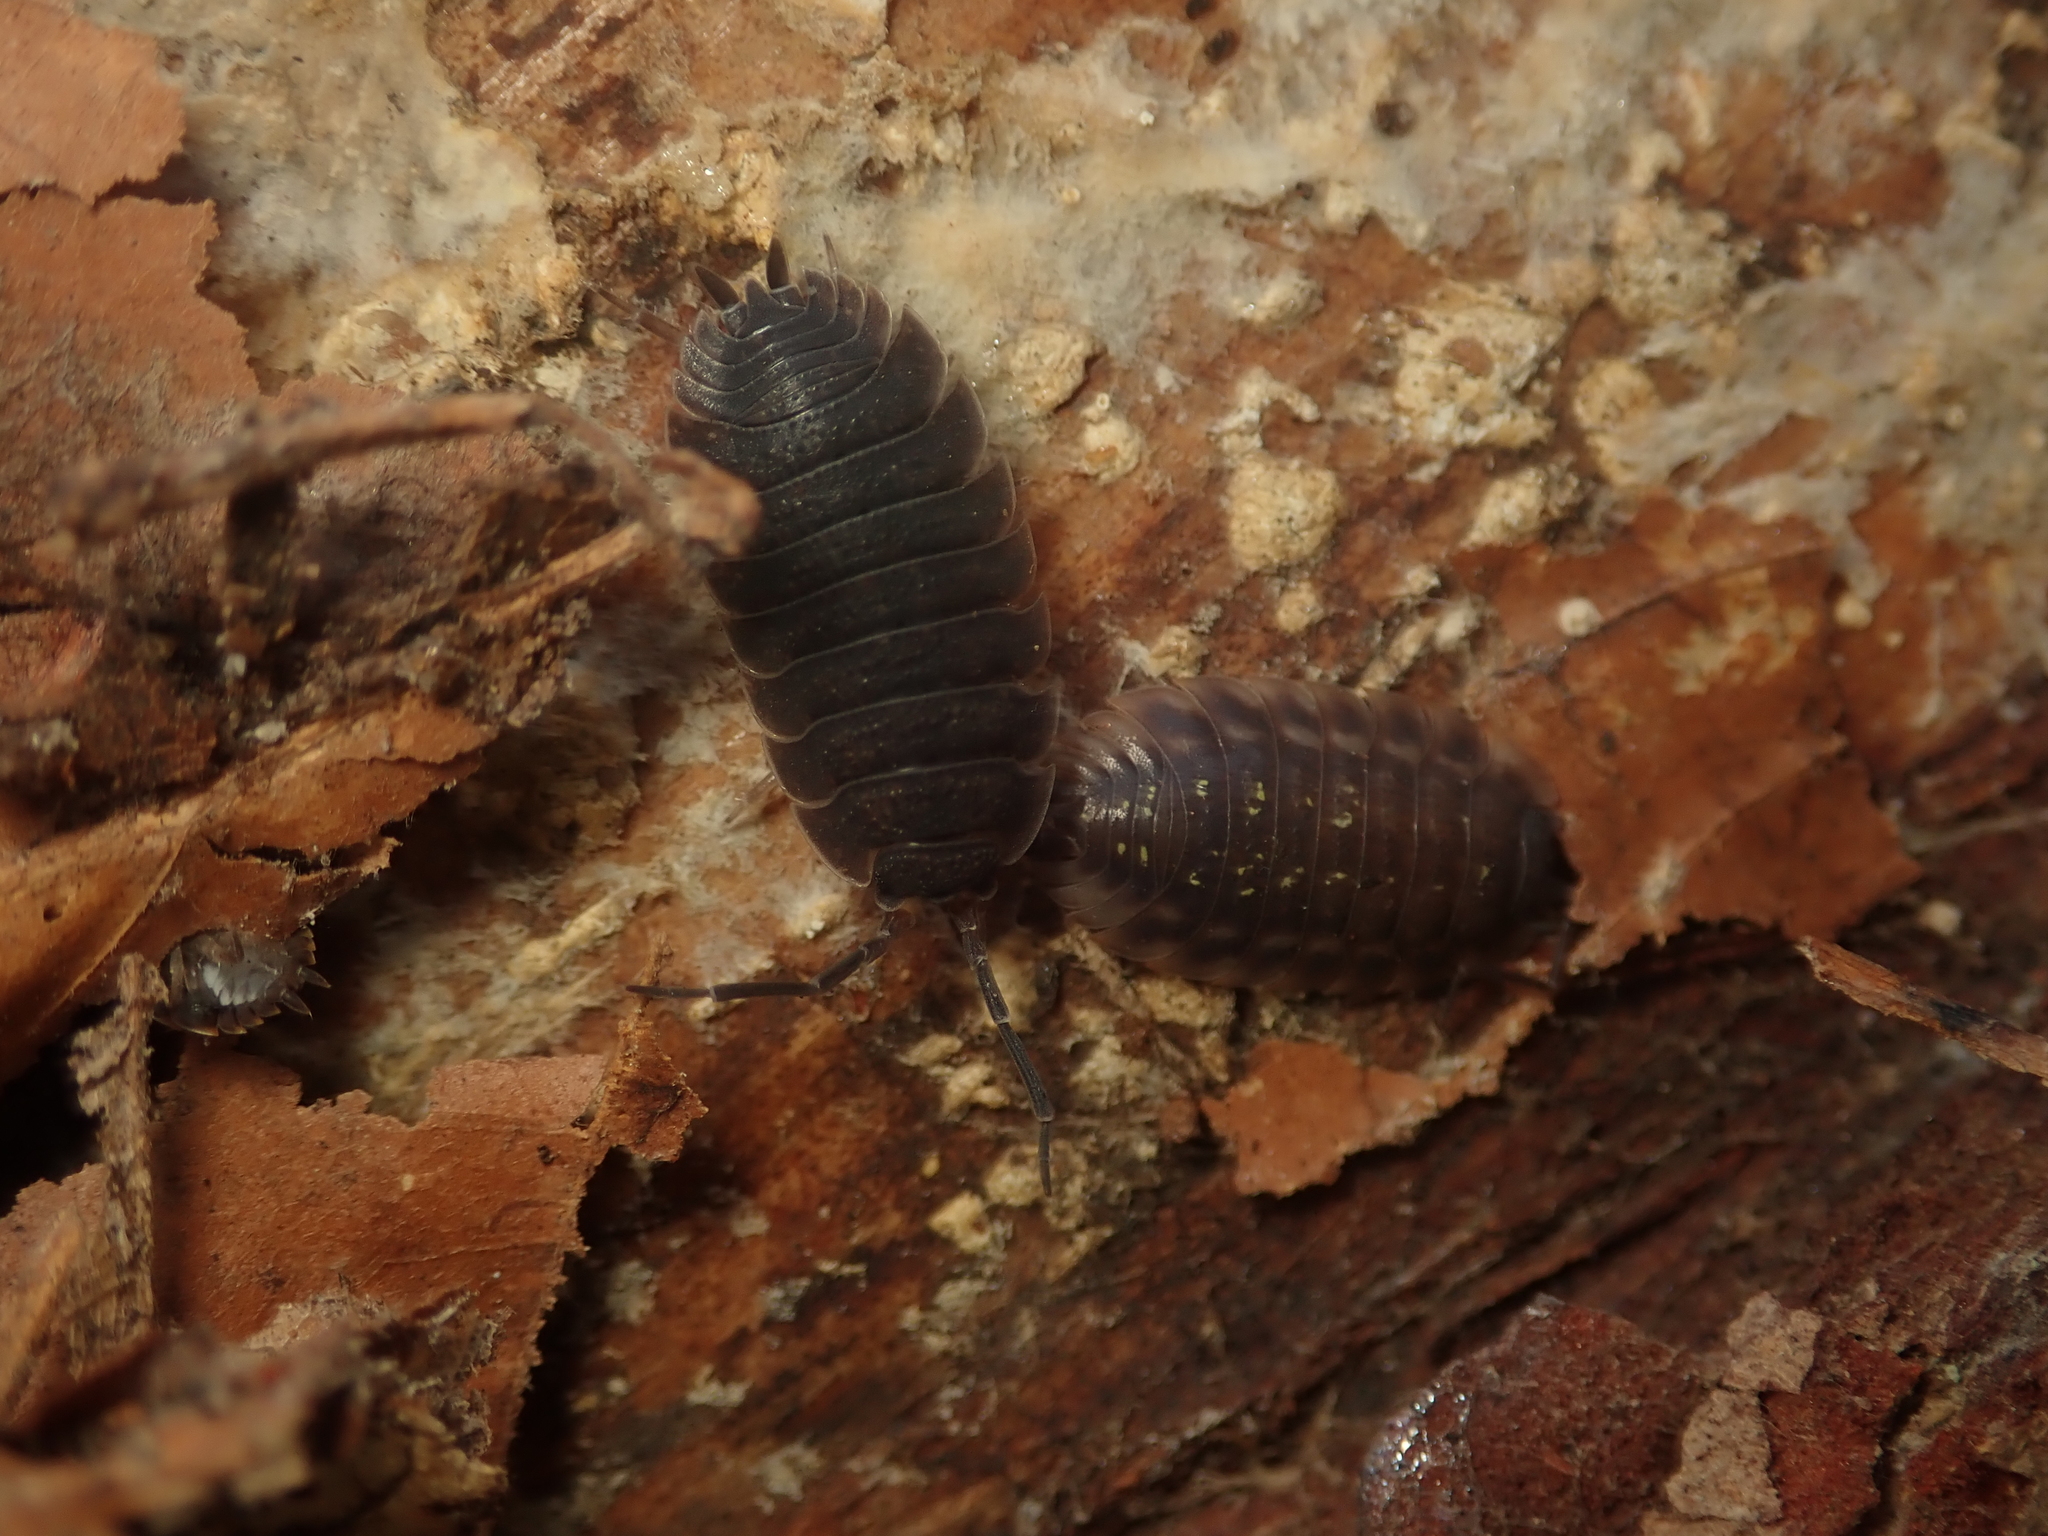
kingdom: Animalia
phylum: Arthropoda
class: Malacostraca
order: Isopoda
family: Porcellionidae
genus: Porcellio
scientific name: Porcellio scaber
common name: Common rough woodlouse
